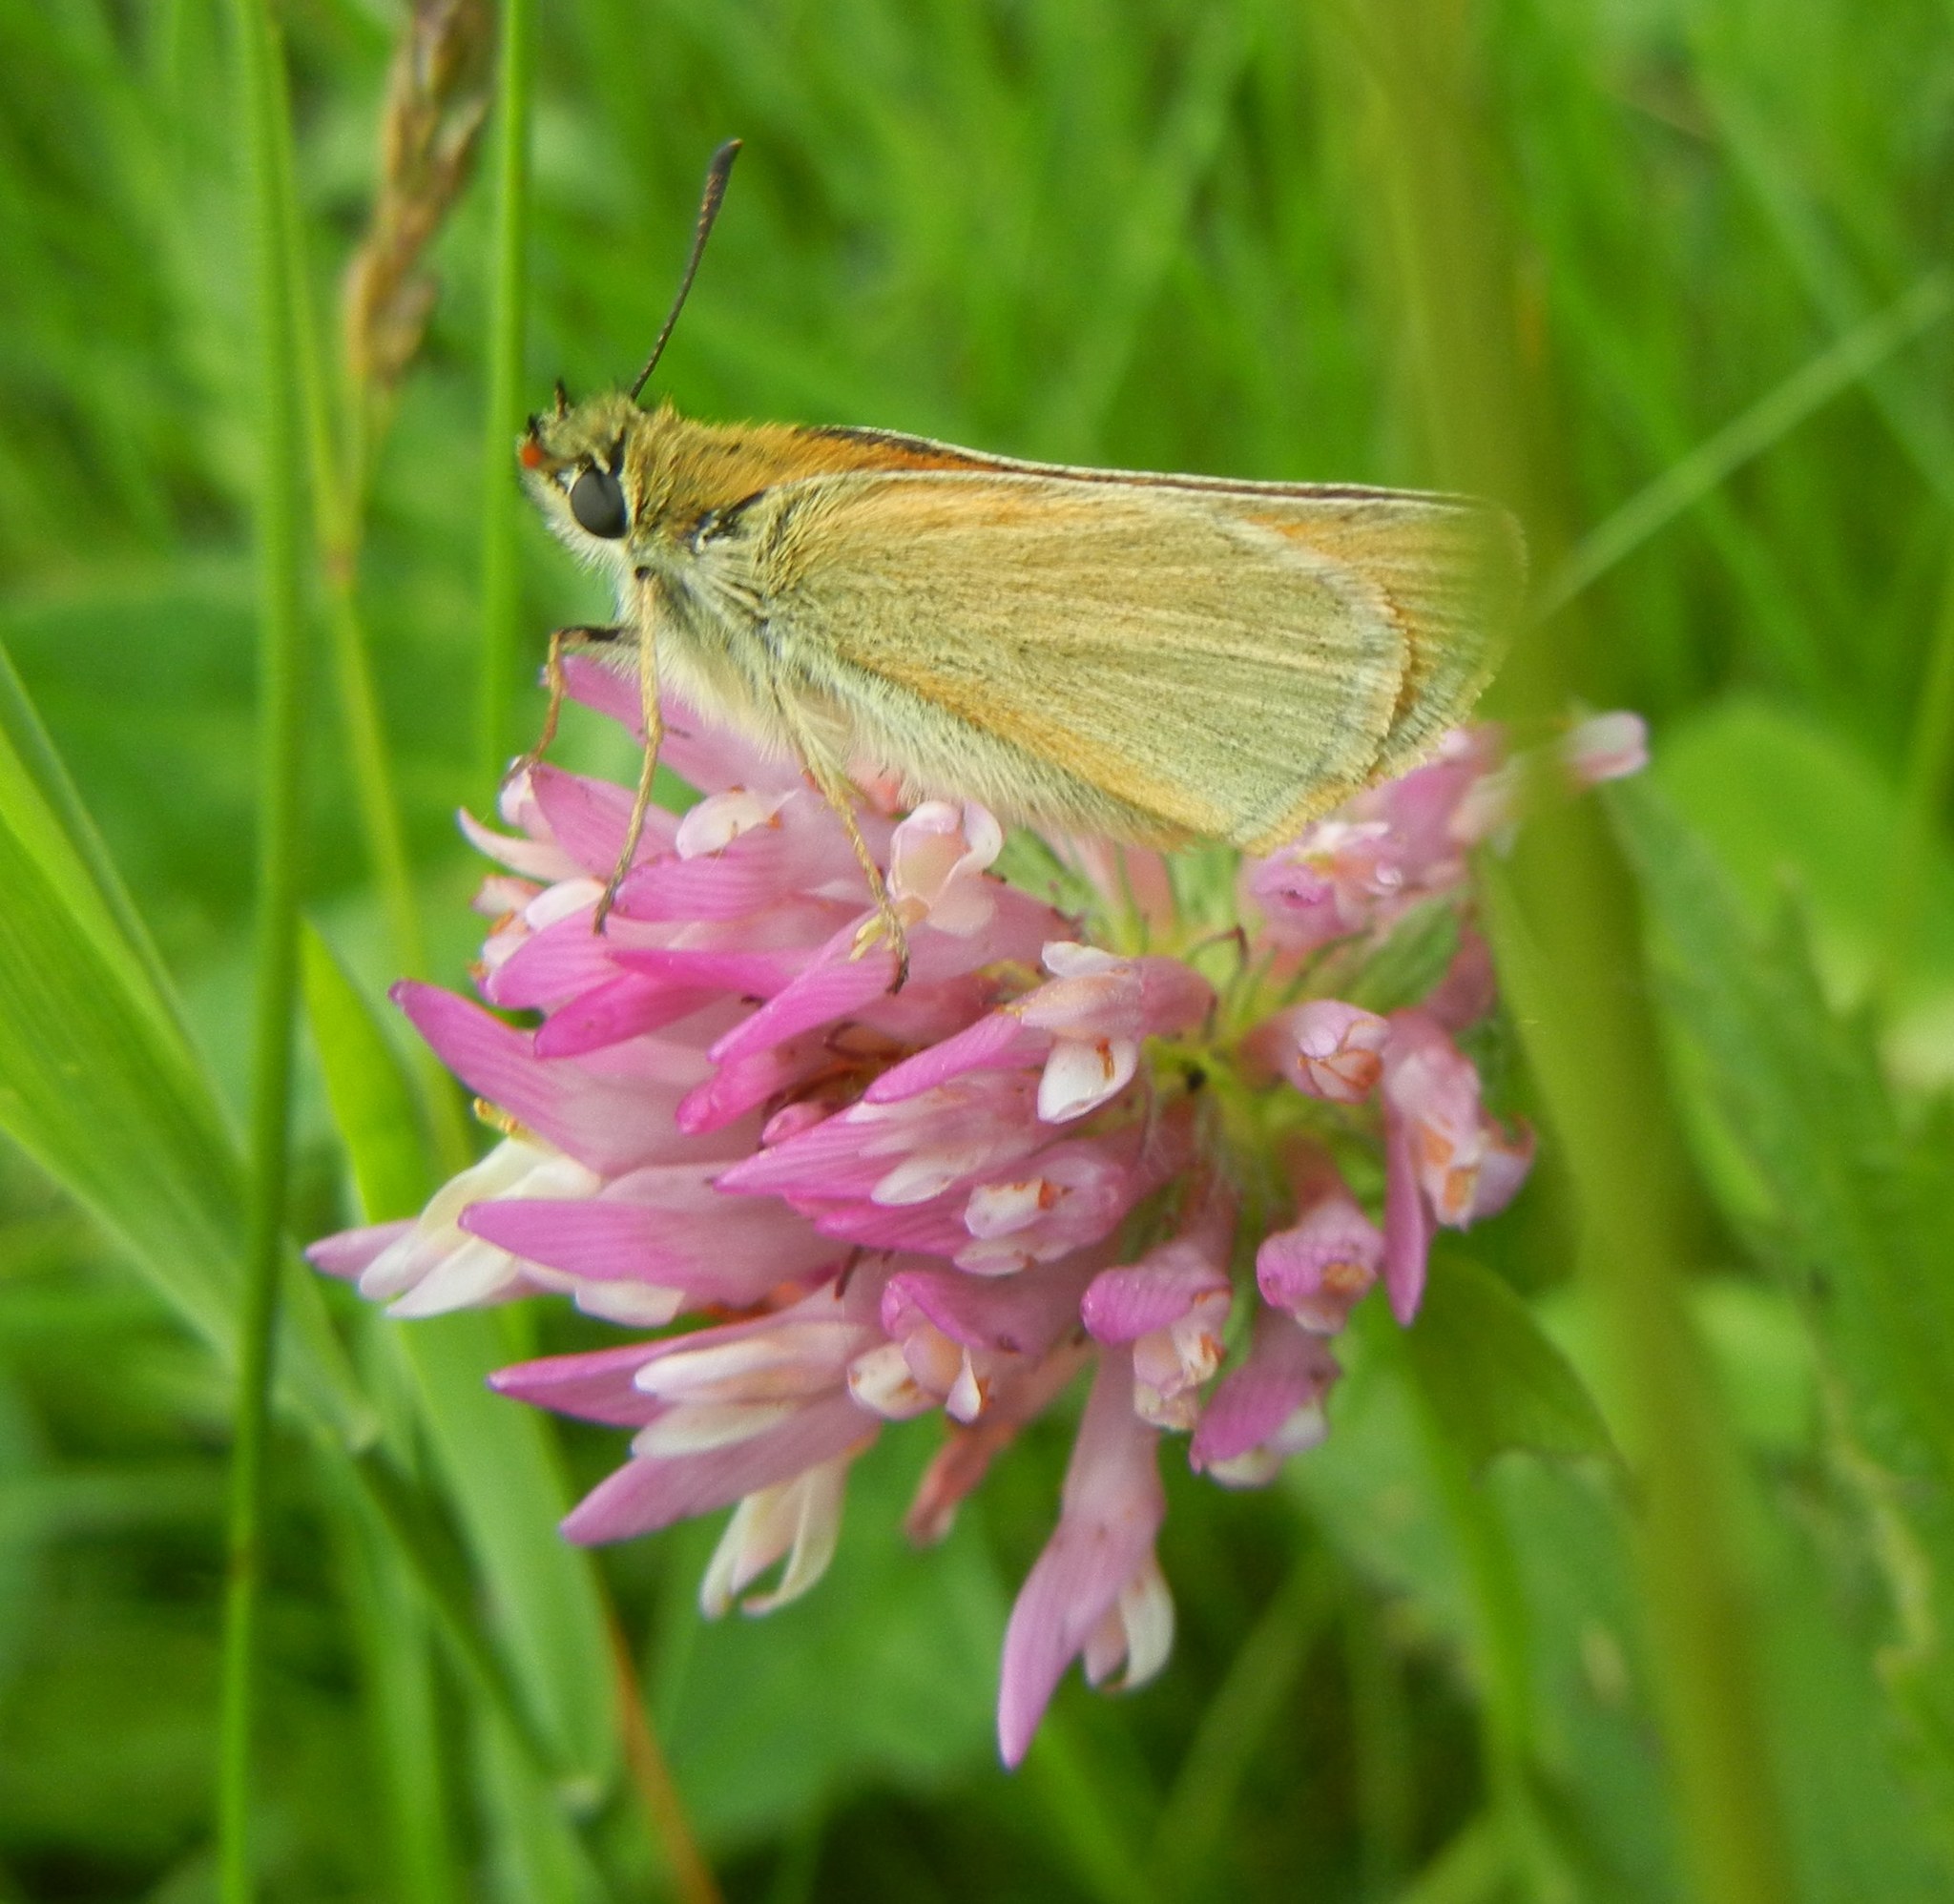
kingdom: Animalia
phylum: Arthropoda
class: Insecta
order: Lepidoptera
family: Hesperiidae
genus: Thymelicus
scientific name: Thymelicus sylvestris
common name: Small skipper
